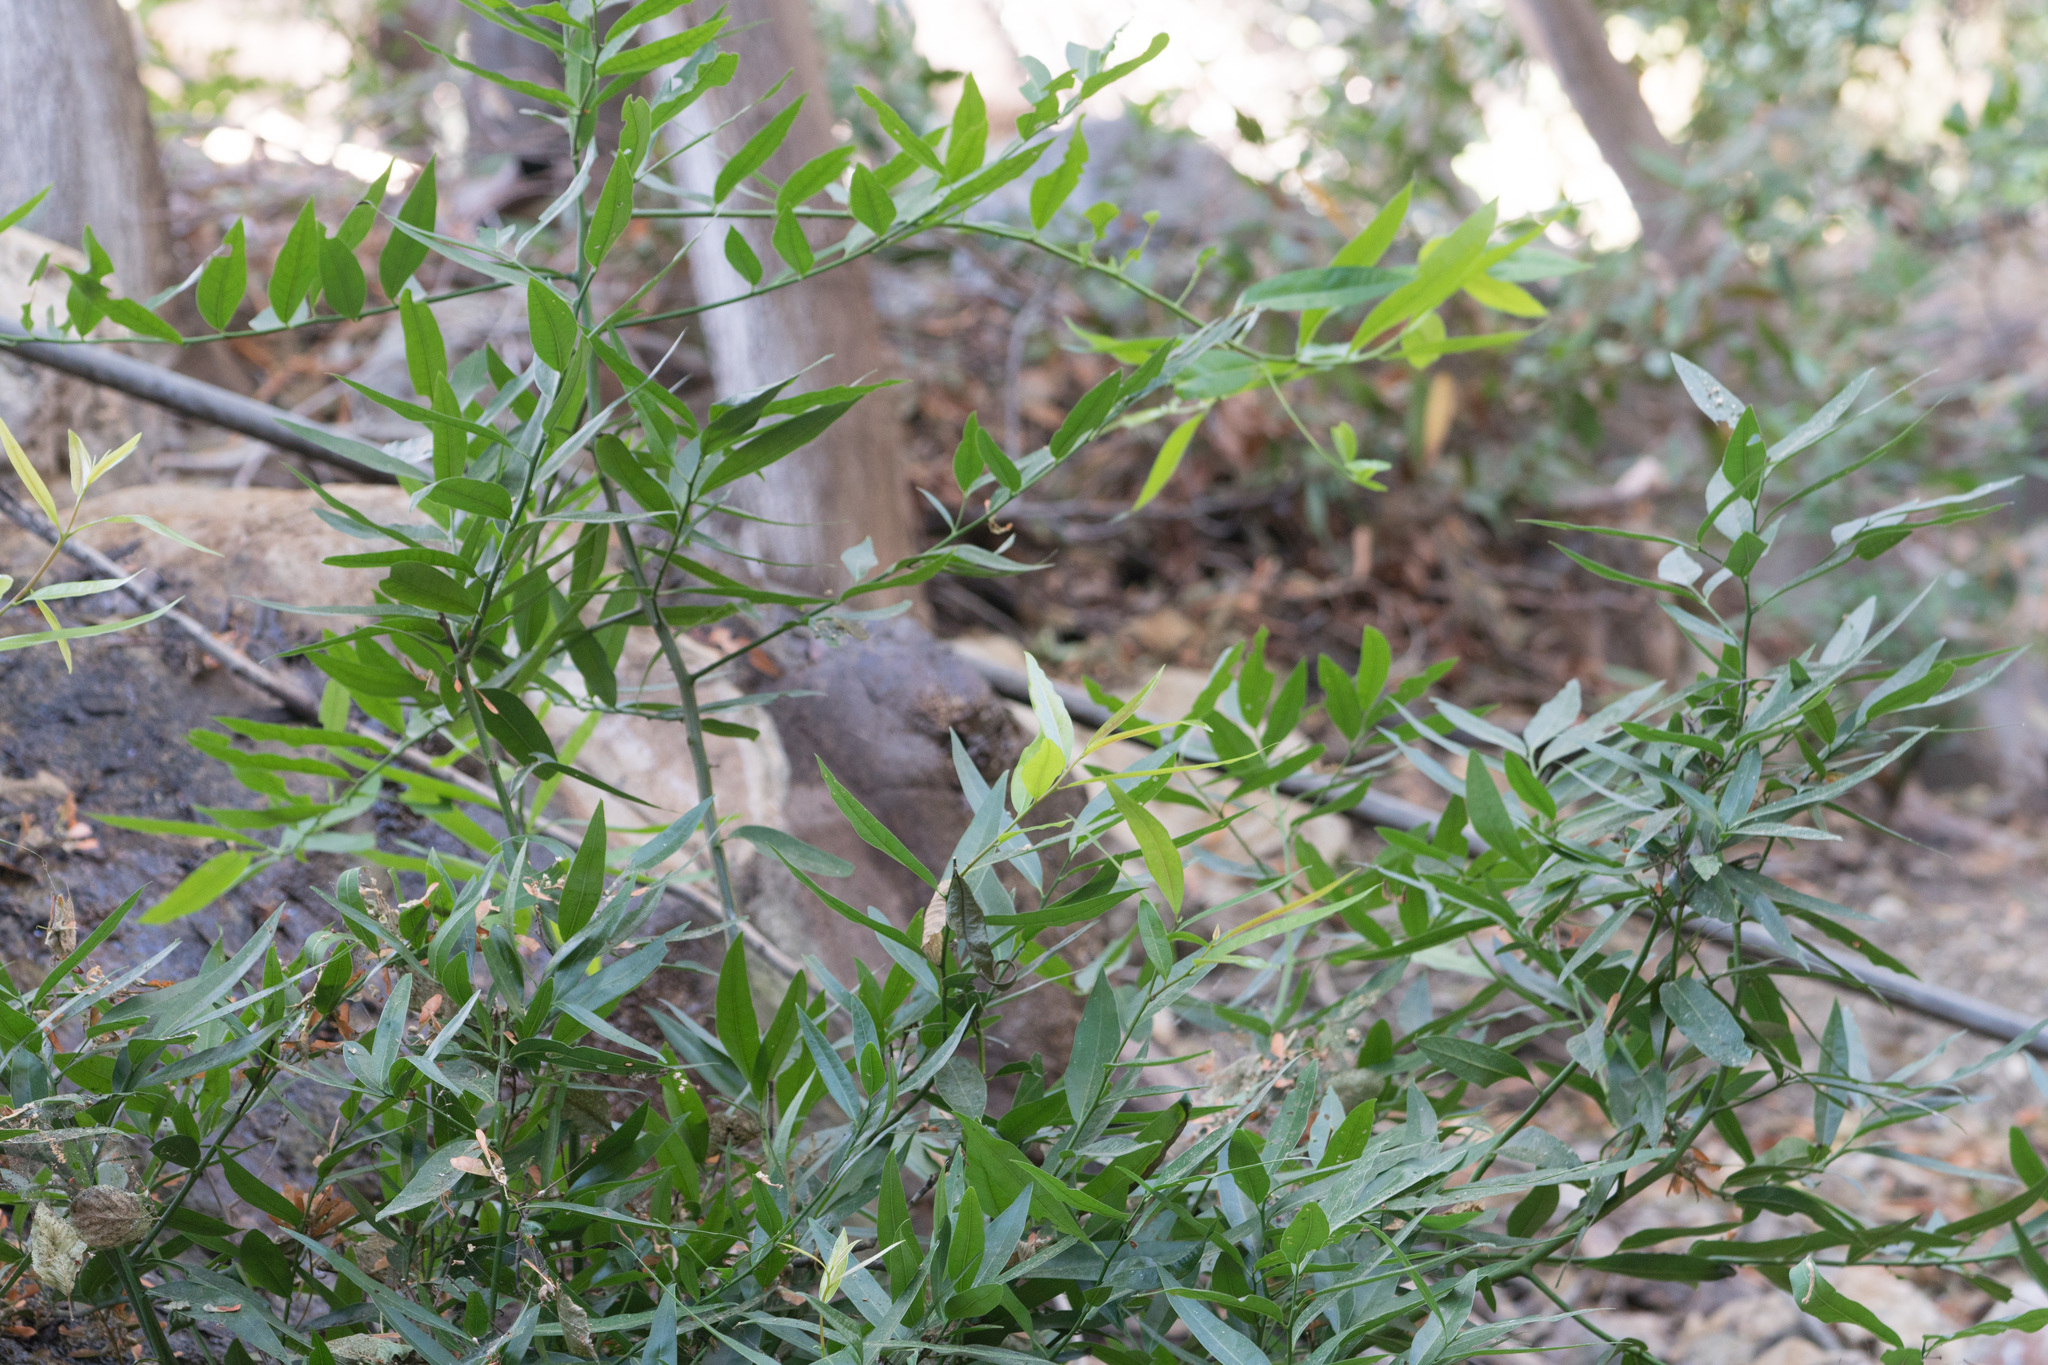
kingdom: Plantae
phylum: Tracheophyta
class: Magnoliopsida
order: Laurales
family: Lauraceae
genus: Umbellularia
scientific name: Umbellularia californica
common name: California bay
